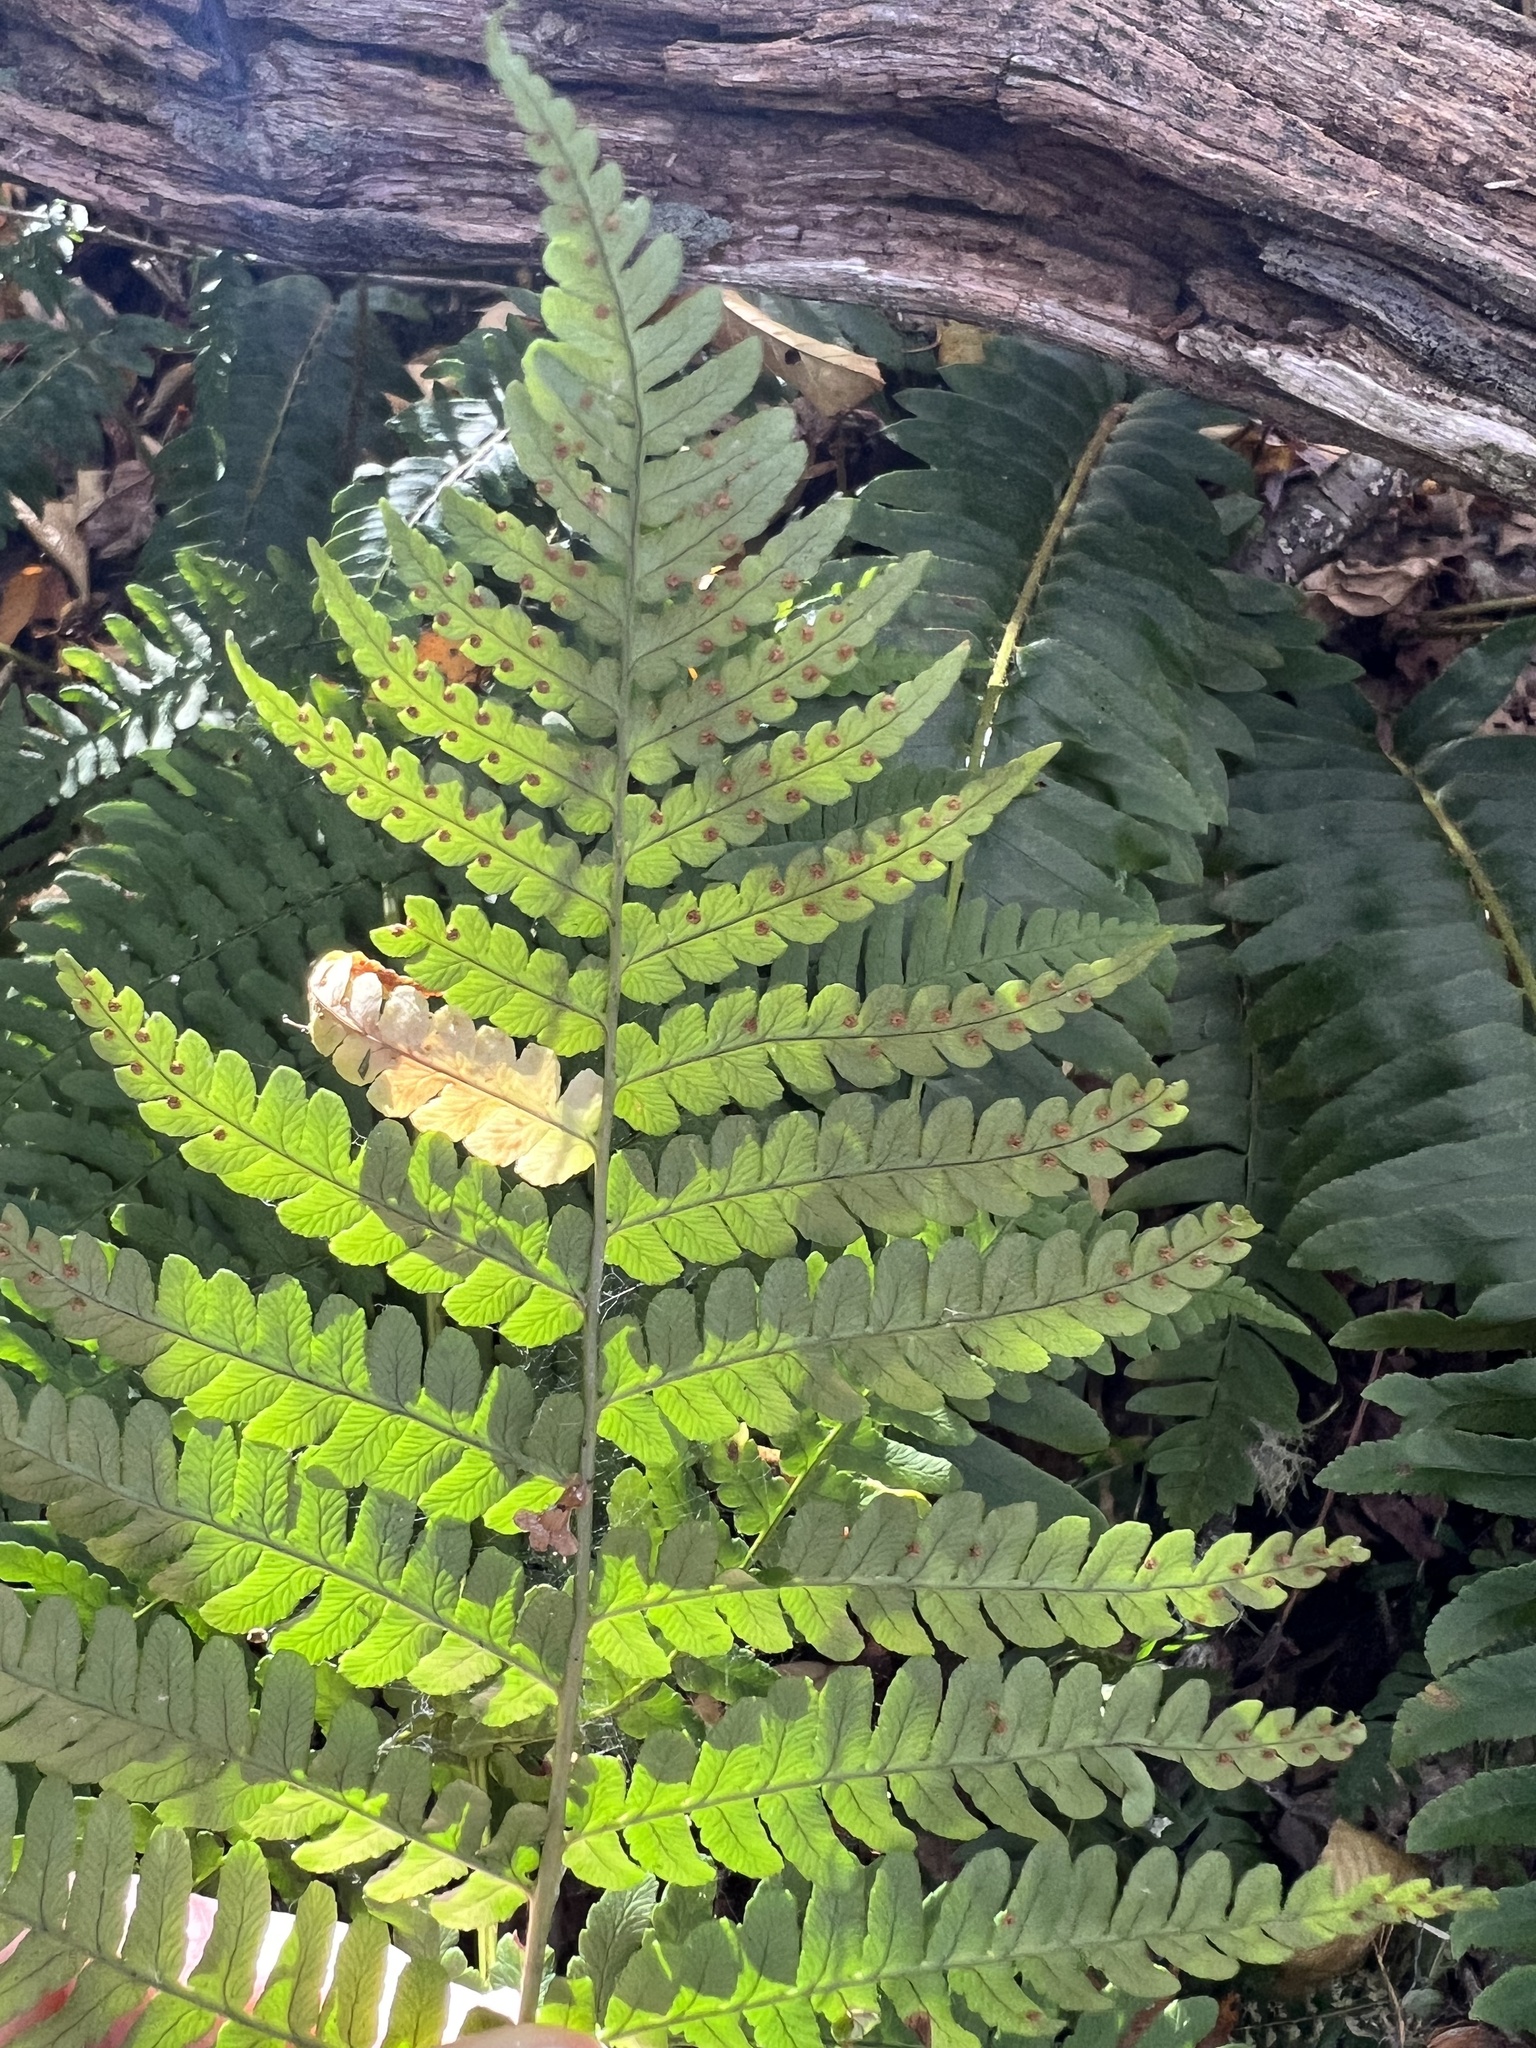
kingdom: Plantae
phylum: Tracheophyta
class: Polypodiopsida
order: Polypodiales
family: Dryopteridaceae
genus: Dryopteris
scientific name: Dryopteris marginalis
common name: Marginal wood fern
